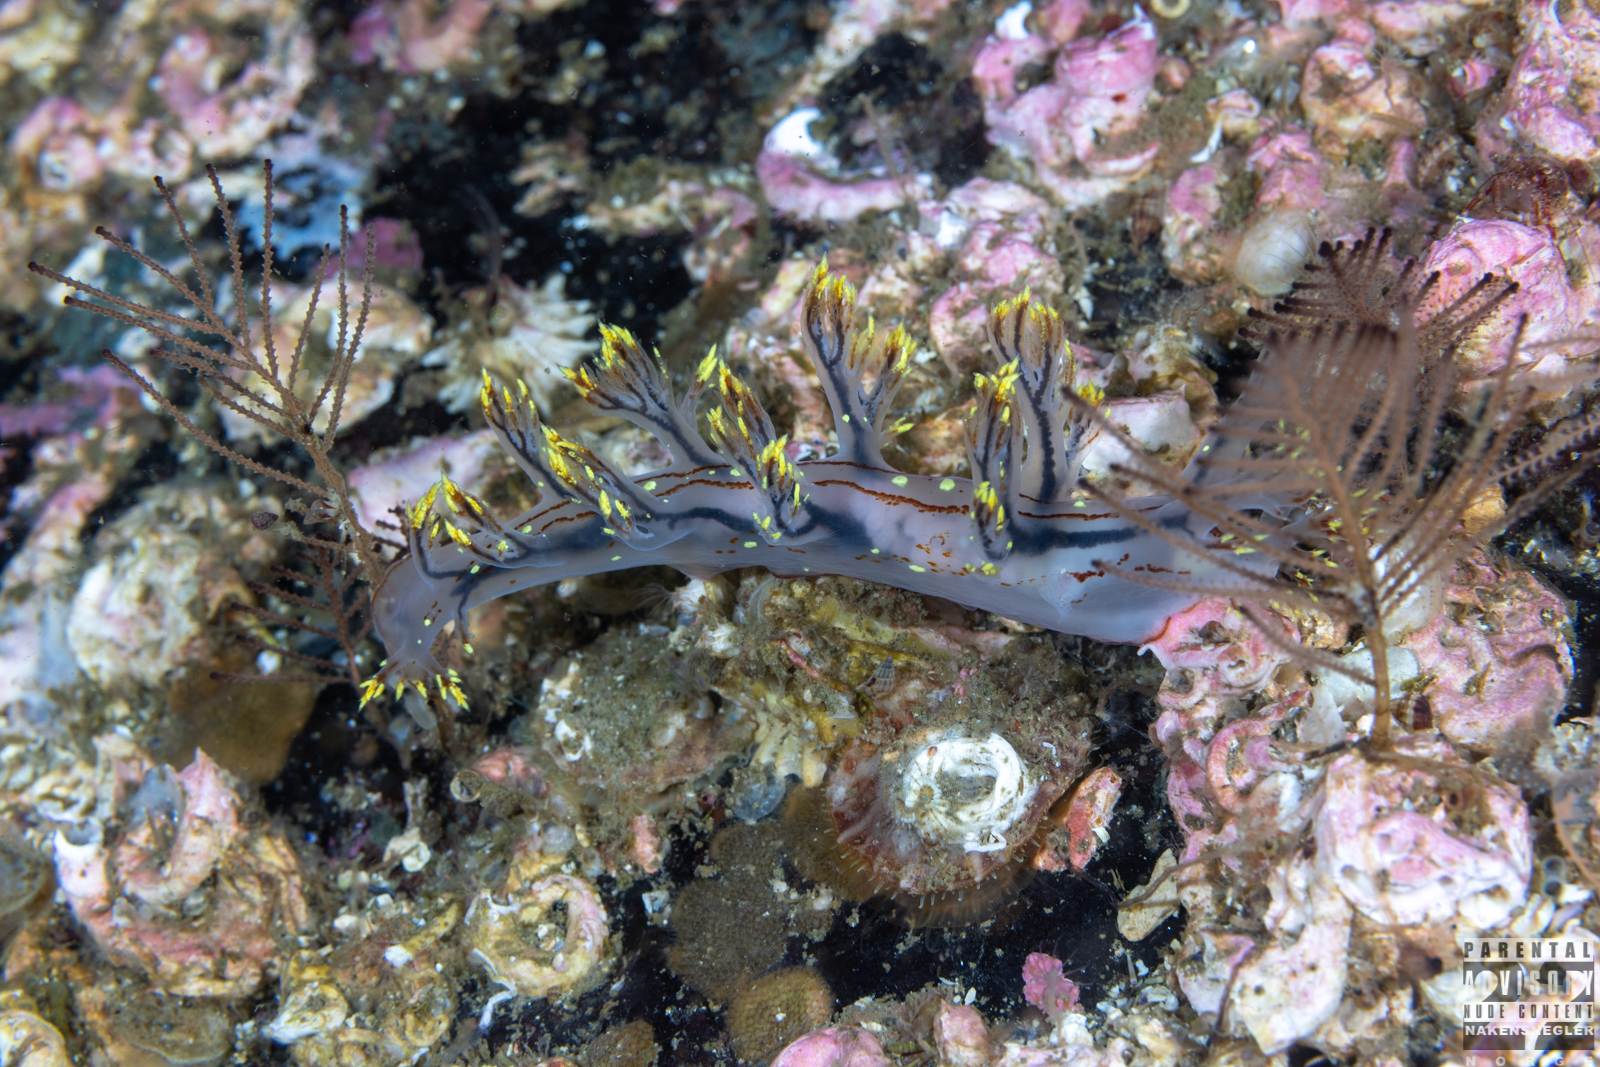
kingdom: Animalia
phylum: Mollusca
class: Gastropoda
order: Nudibranchia
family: Dendronotidae
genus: Dendronotus
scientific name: Dendronotus yrjargul
